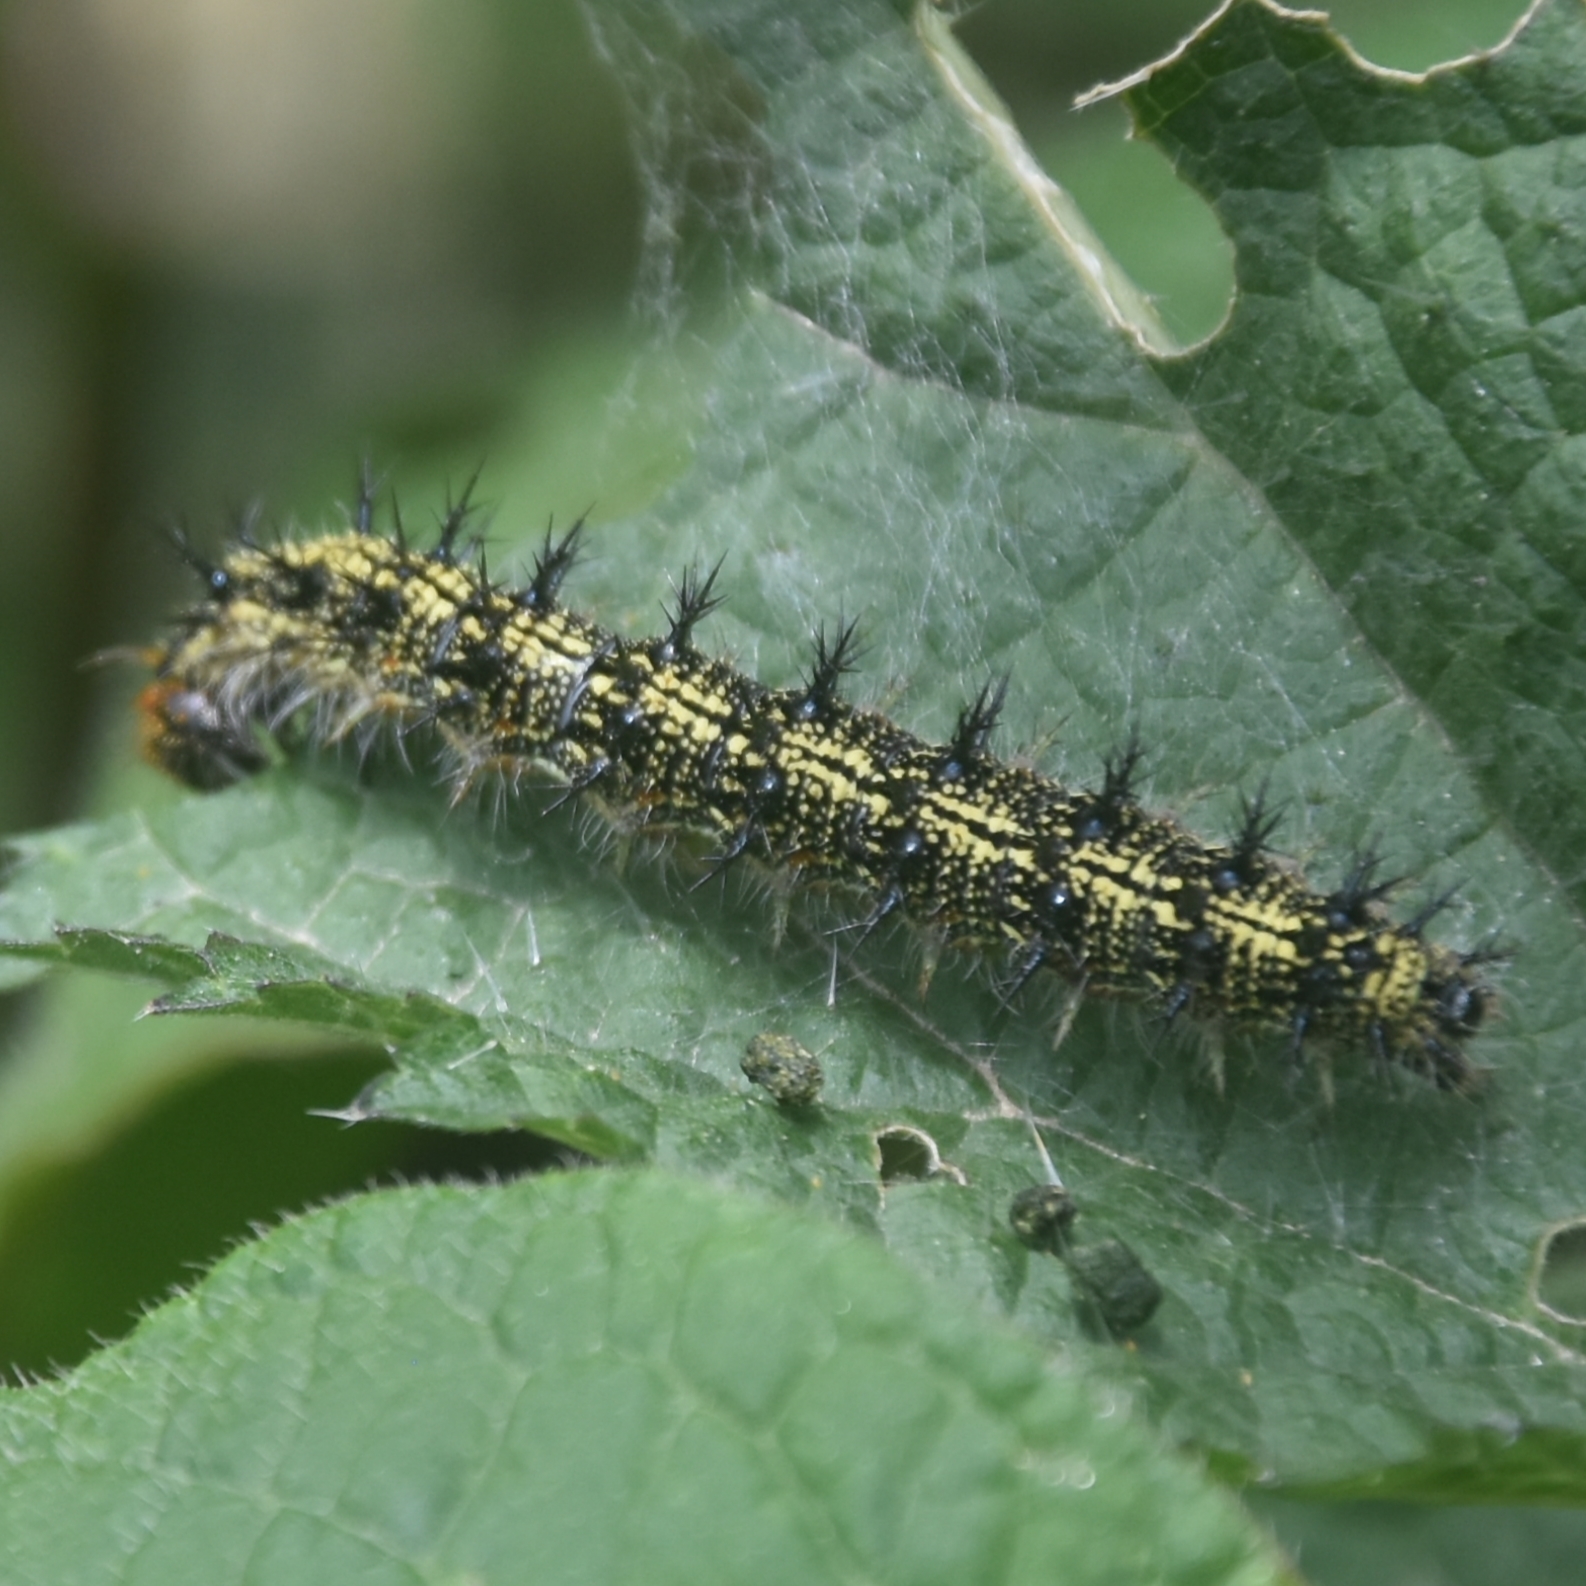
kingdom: Animalia
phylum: Arthropoda
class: Insecta
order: Lepidoptera
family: Nymphalidae
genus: Aglais
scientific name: Aglais caschmirensis
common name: Indian tortoiseshell
